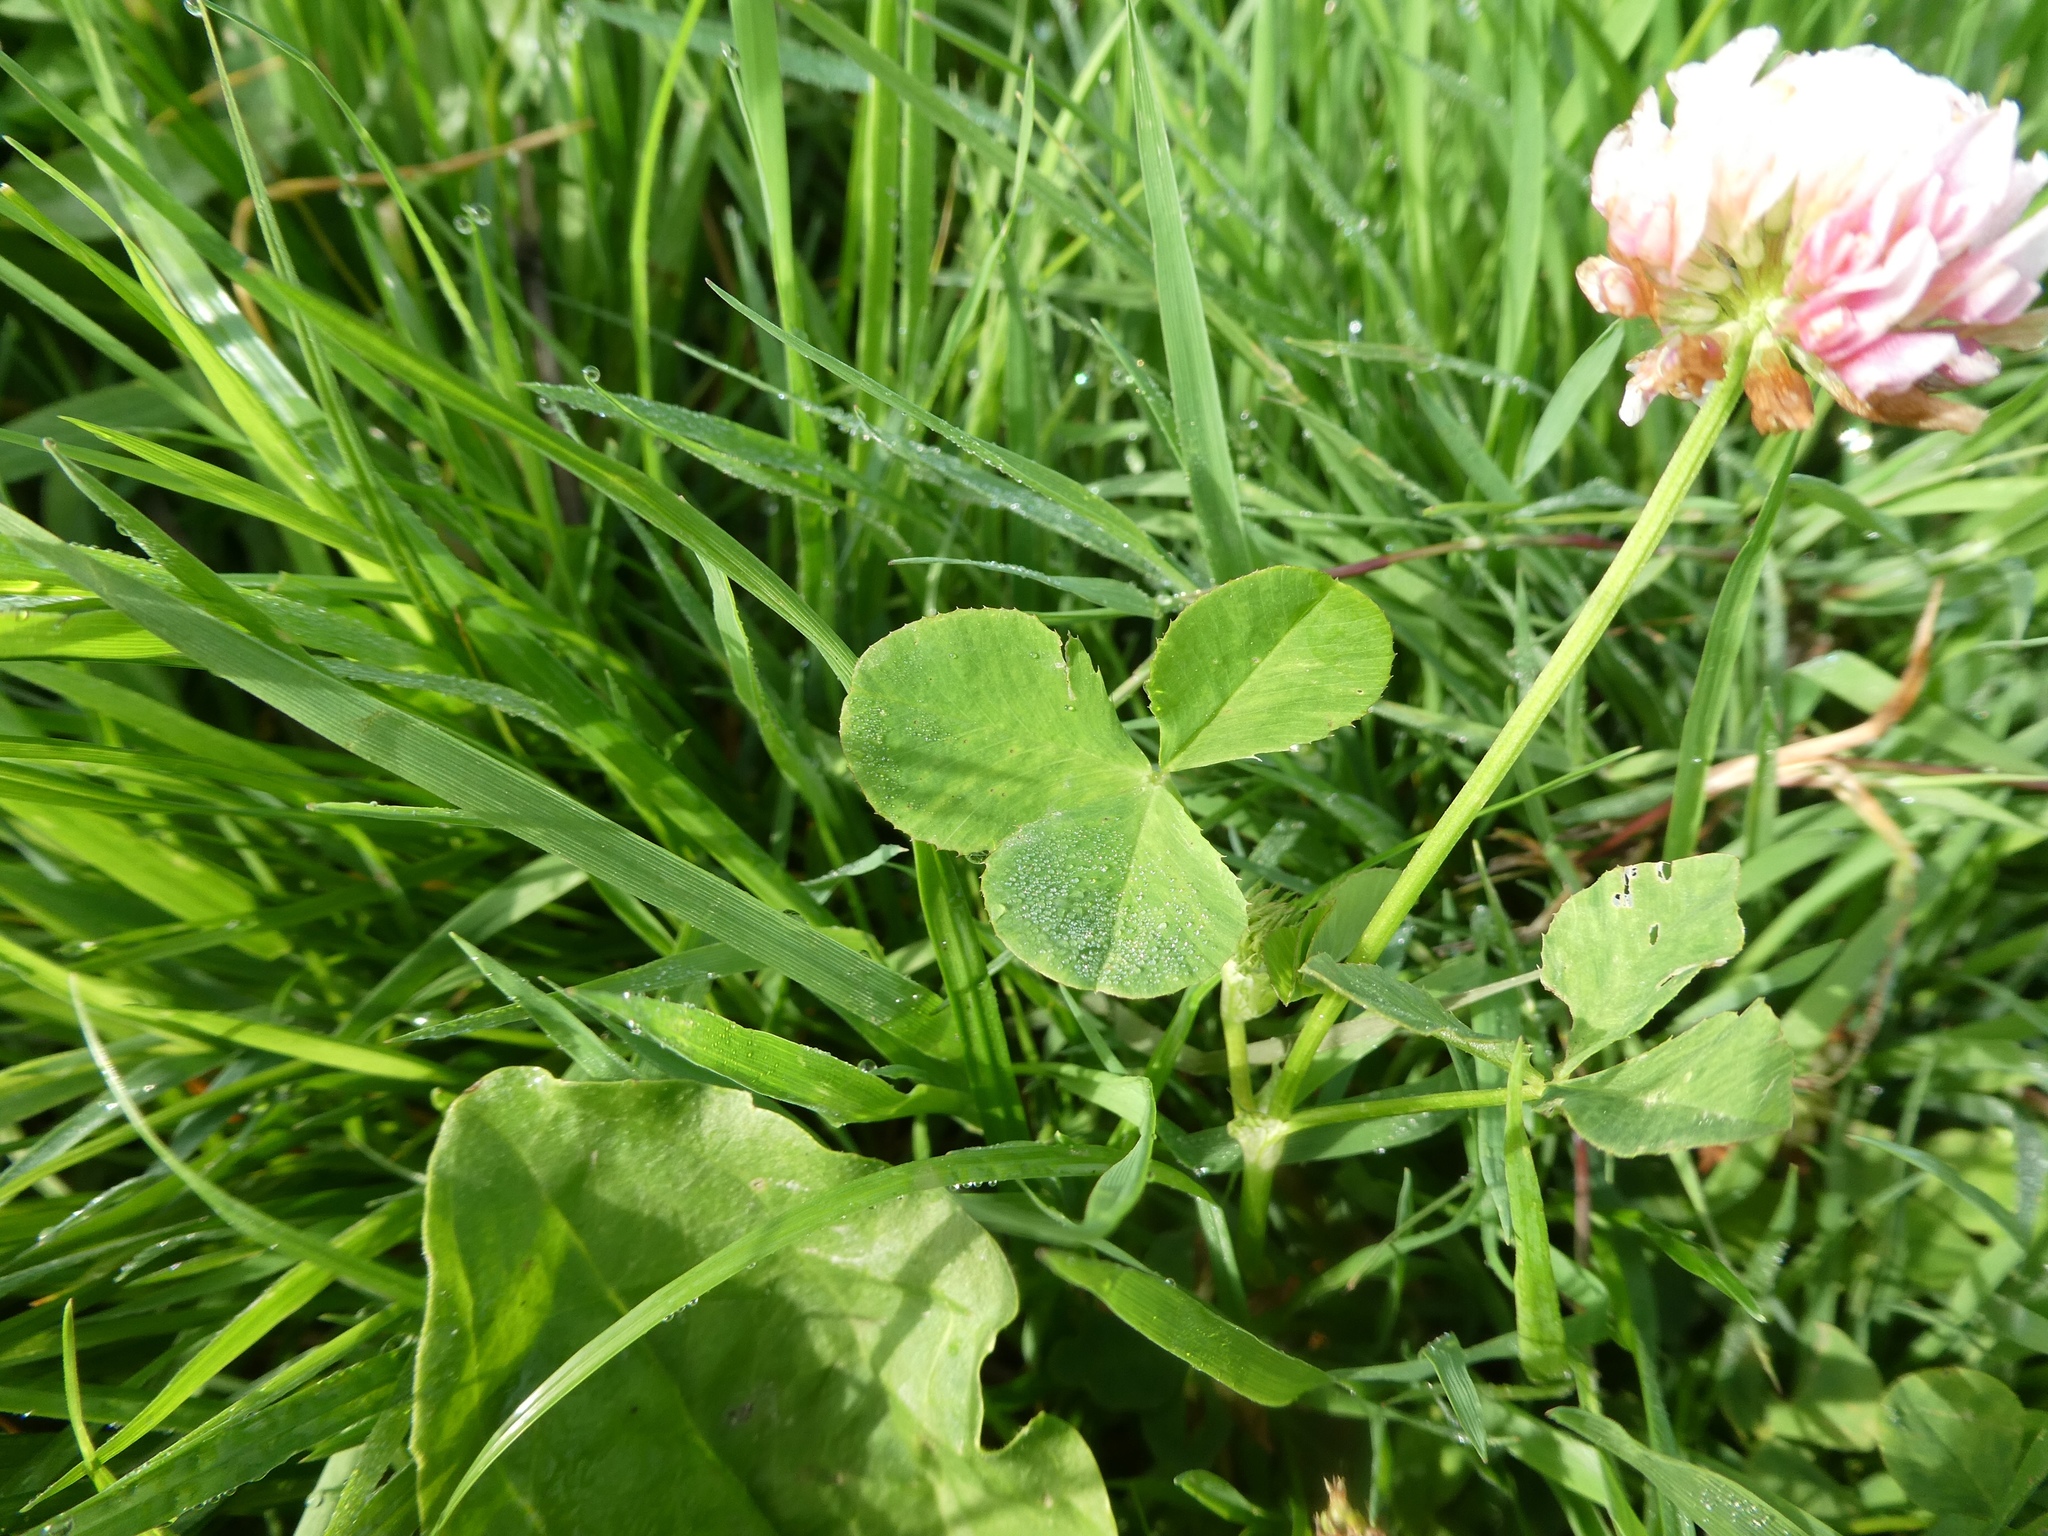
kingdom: Plantae
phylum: Tracheophyta
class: Magnoliopsida
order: Fabales
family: Fabaceae
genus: Trifolium
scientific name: Trifolium hybridum
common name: Alsike clover
